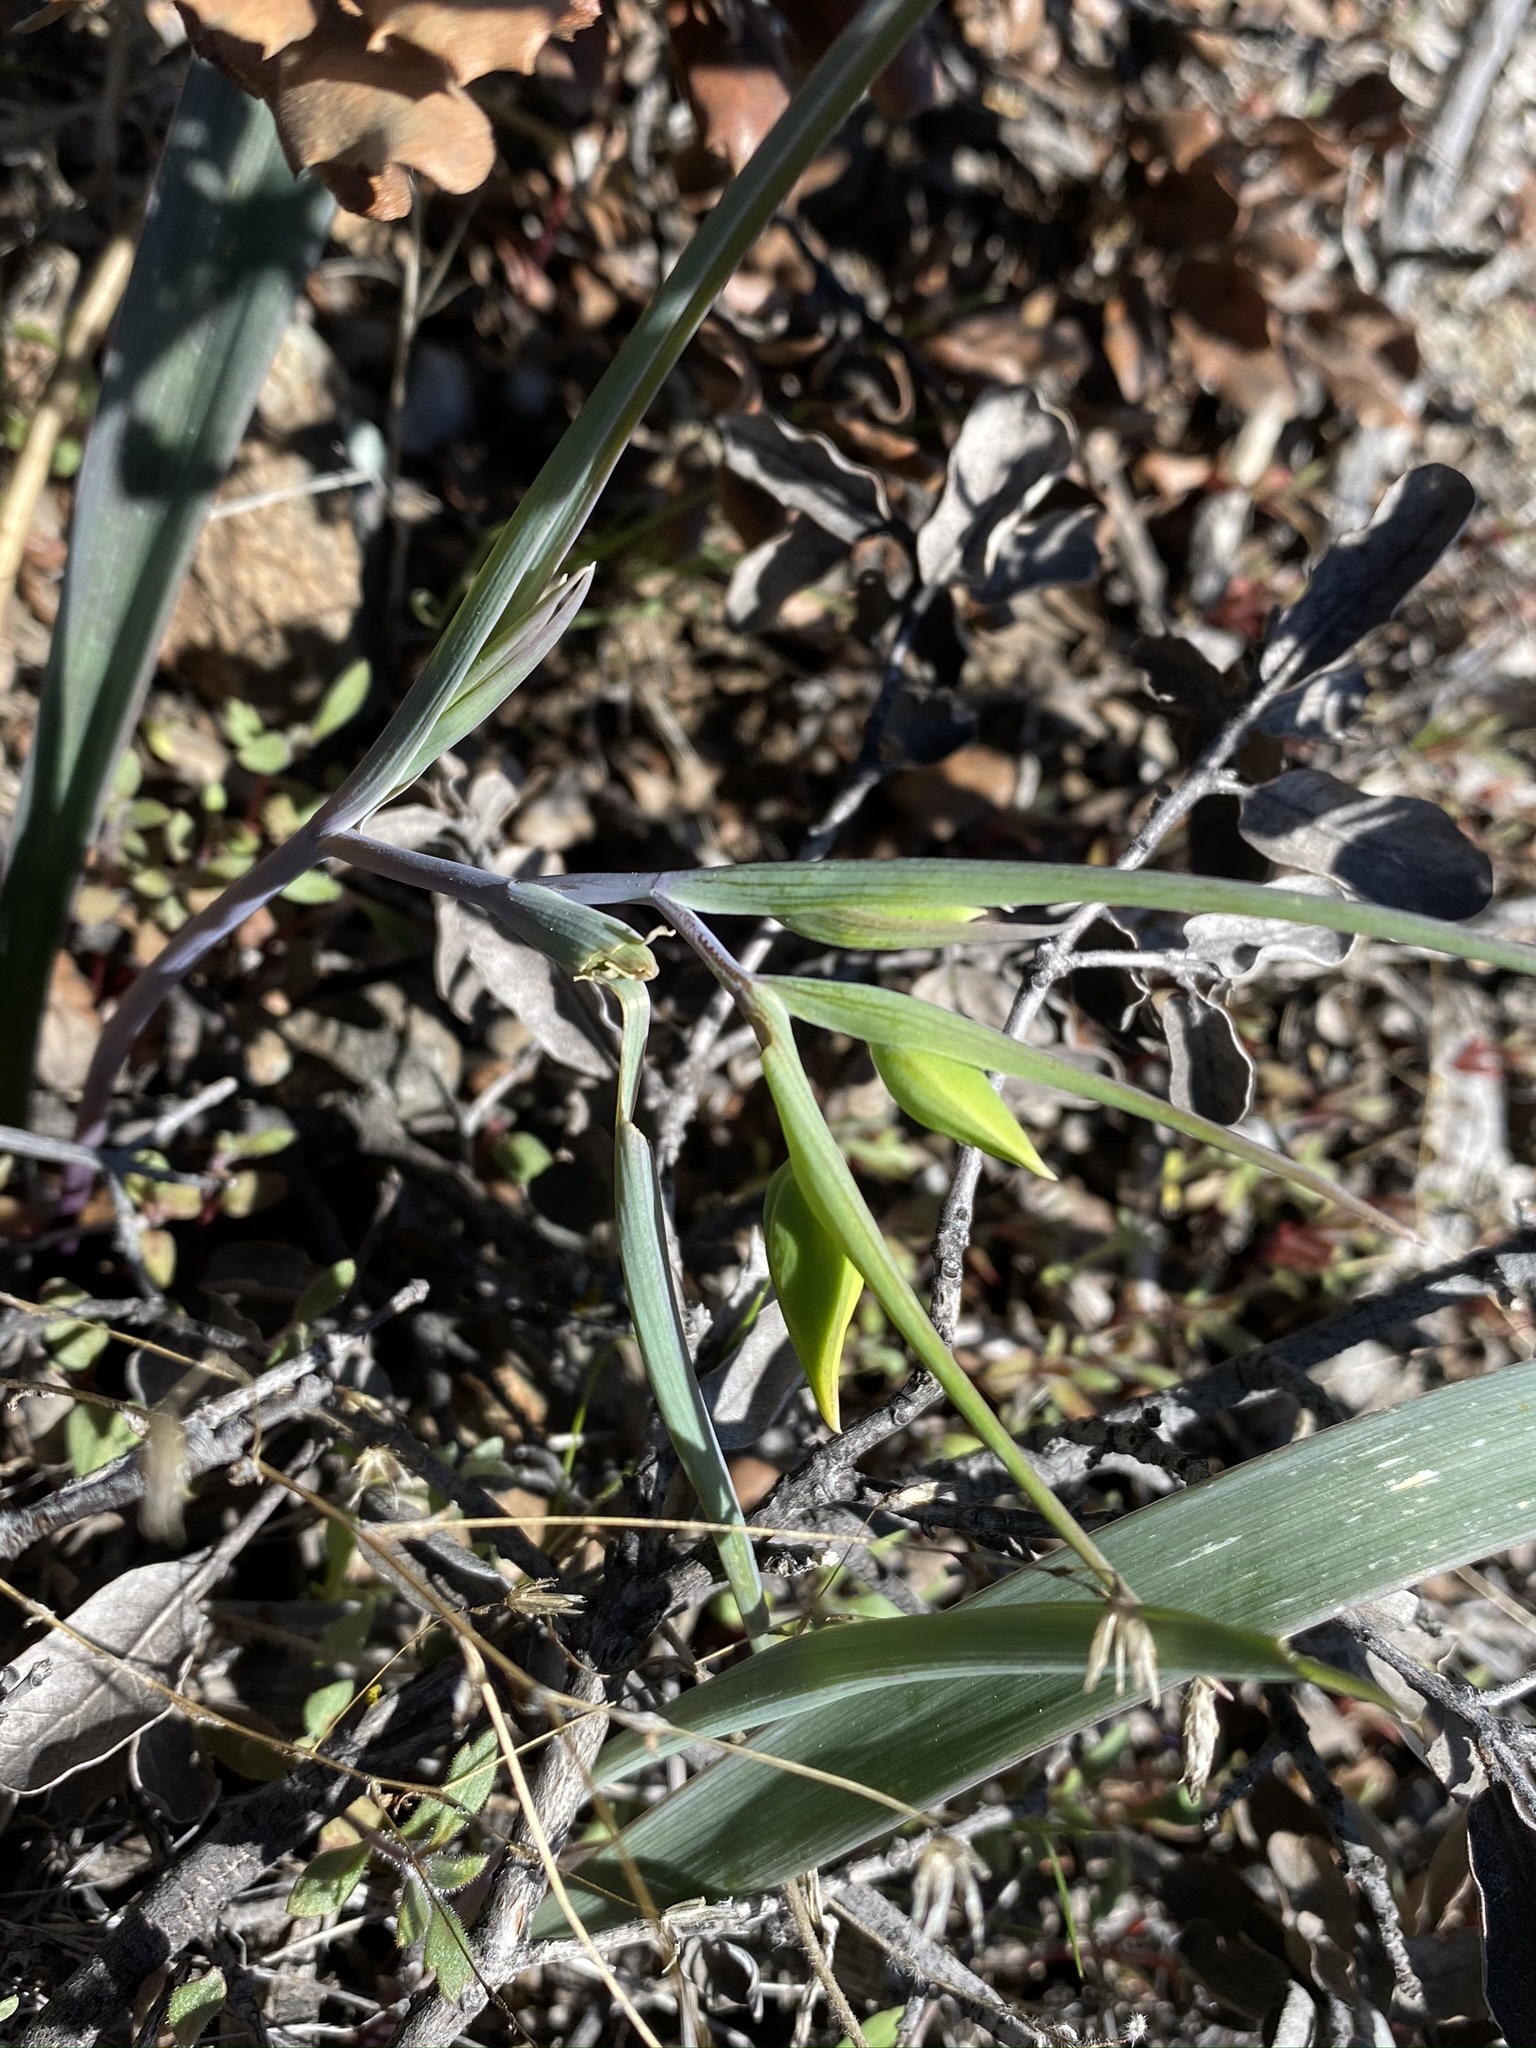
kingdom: Plantae
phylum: Tracheophyta
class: Liliopsida
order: Liliales
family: Liliaceae
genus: Calochortus
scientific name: Calochortus amabilis
